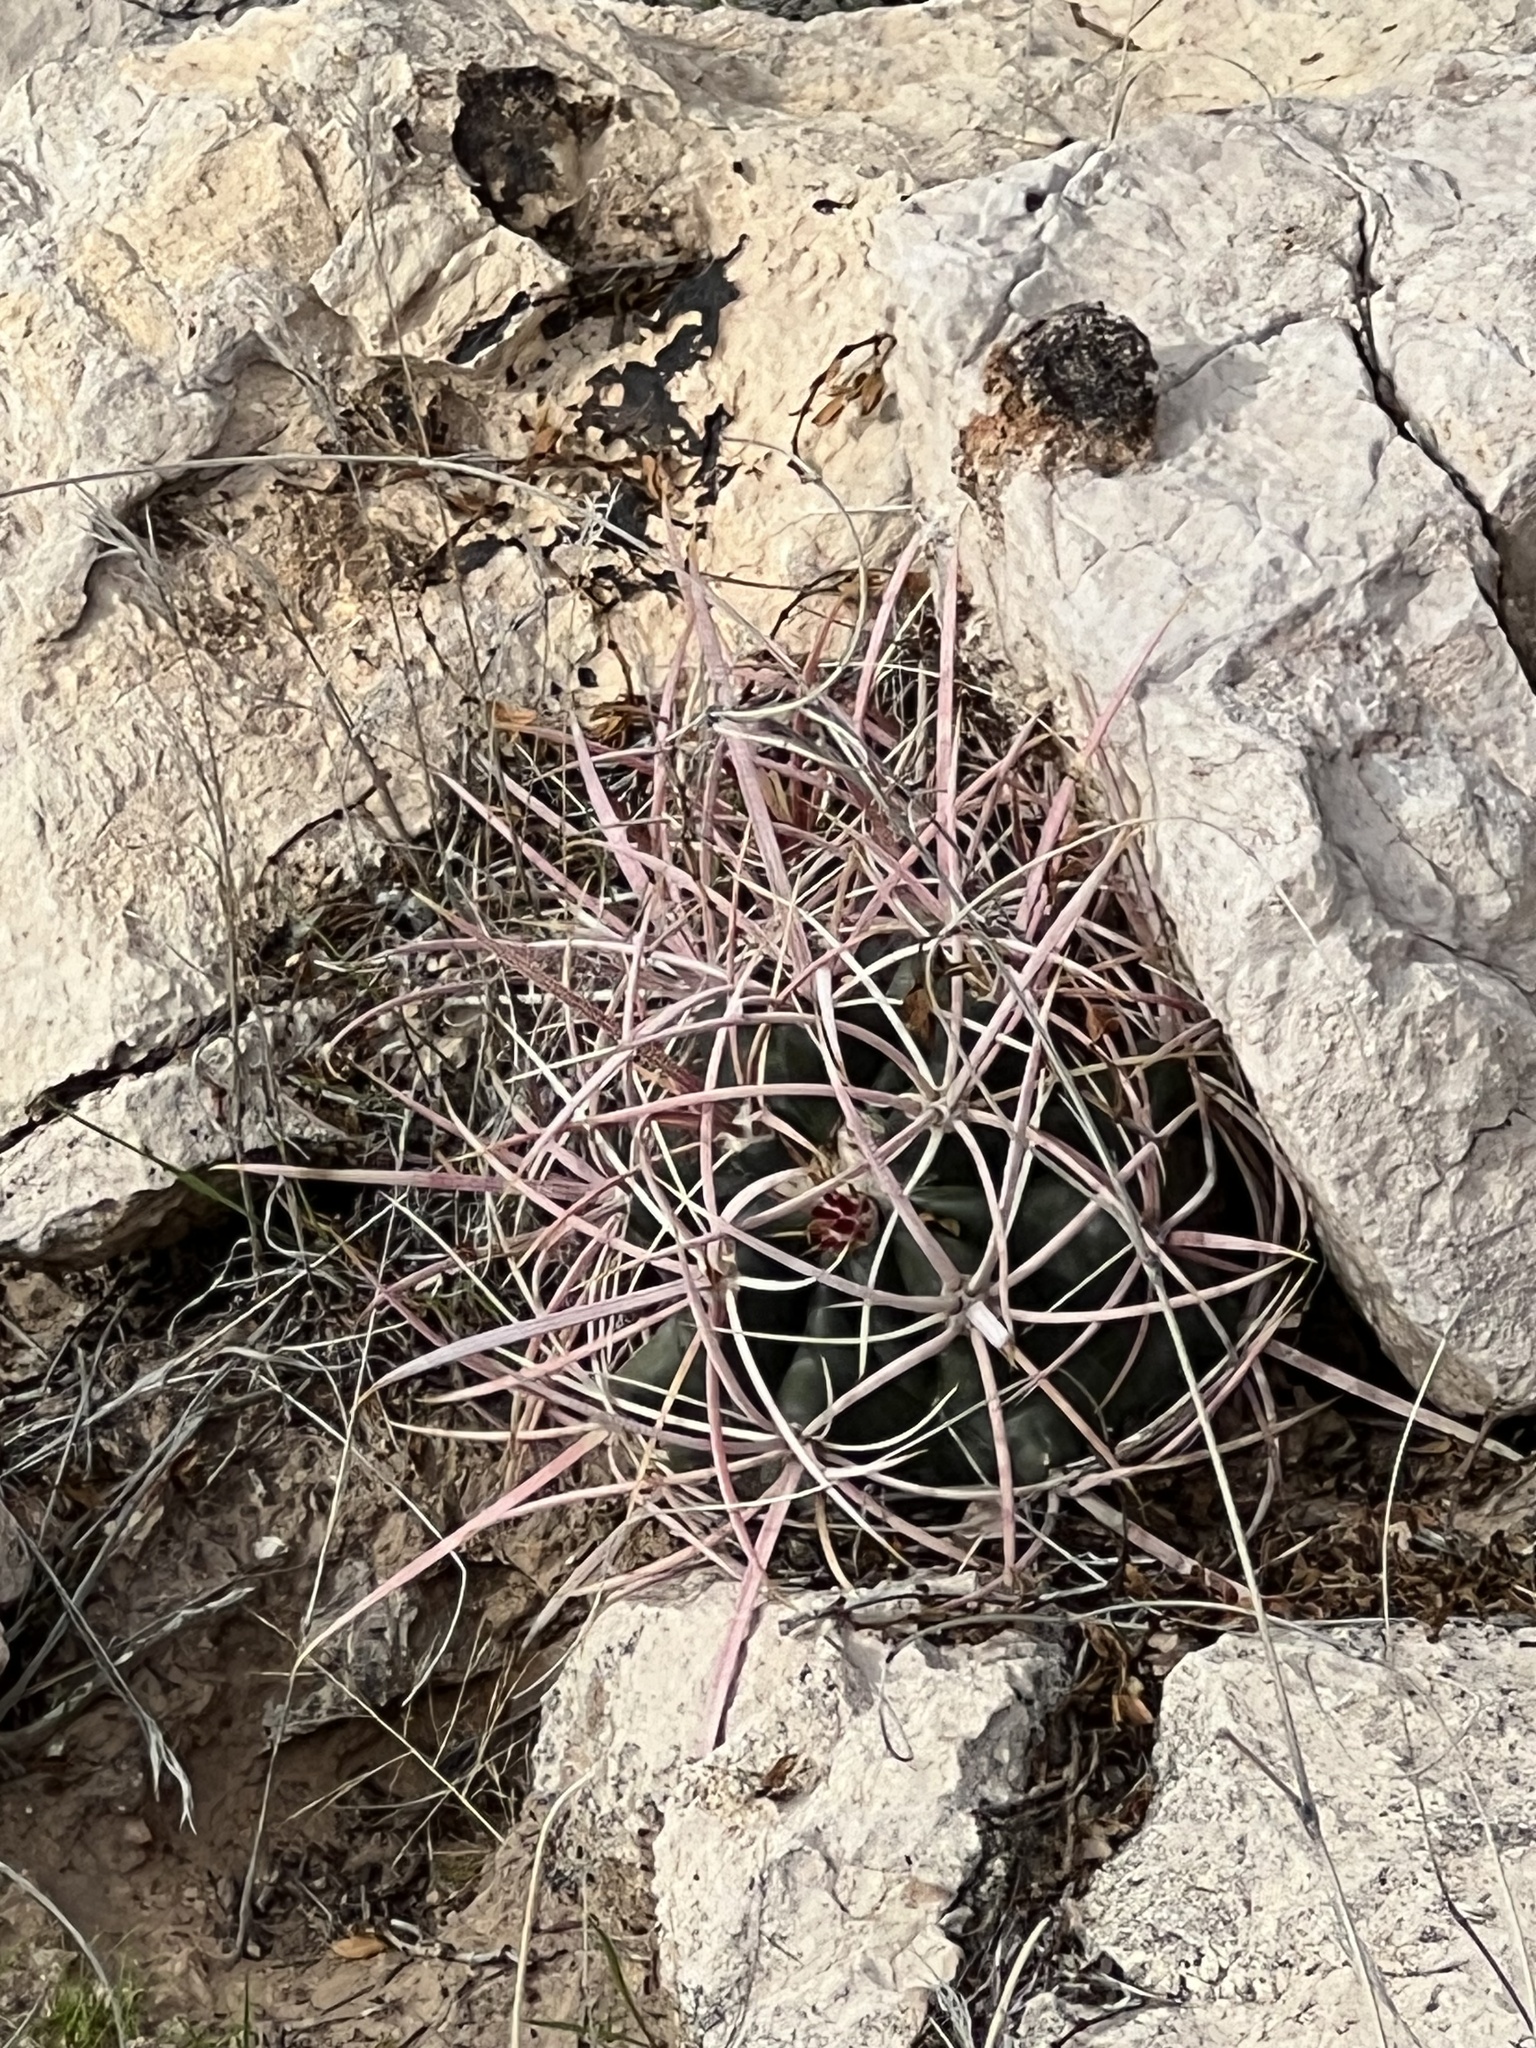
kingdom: Plantae
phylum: Tracheophyta
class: Magnoliopsida
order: Caryophyllales
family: Cactaceae
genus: Ferocactus
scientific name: Ferocactus cylindraceus
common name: California barrel cactus
